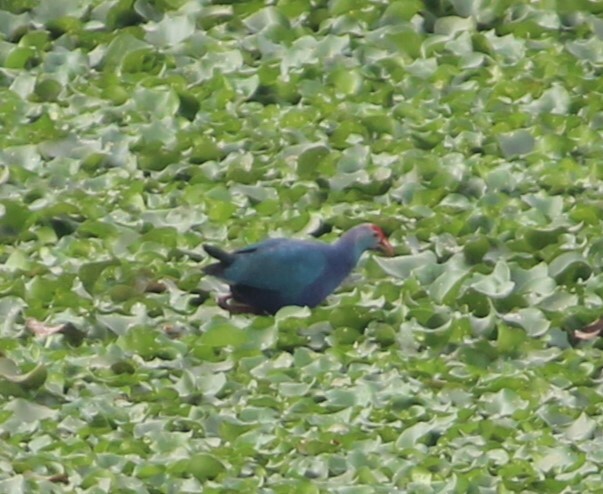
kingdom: Animalia
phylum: Chordata
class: Aves
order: Gruiformes
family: Rallidae
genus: Porphyrio
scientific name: Porphyrio porphyrio
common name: Purple swamphen
